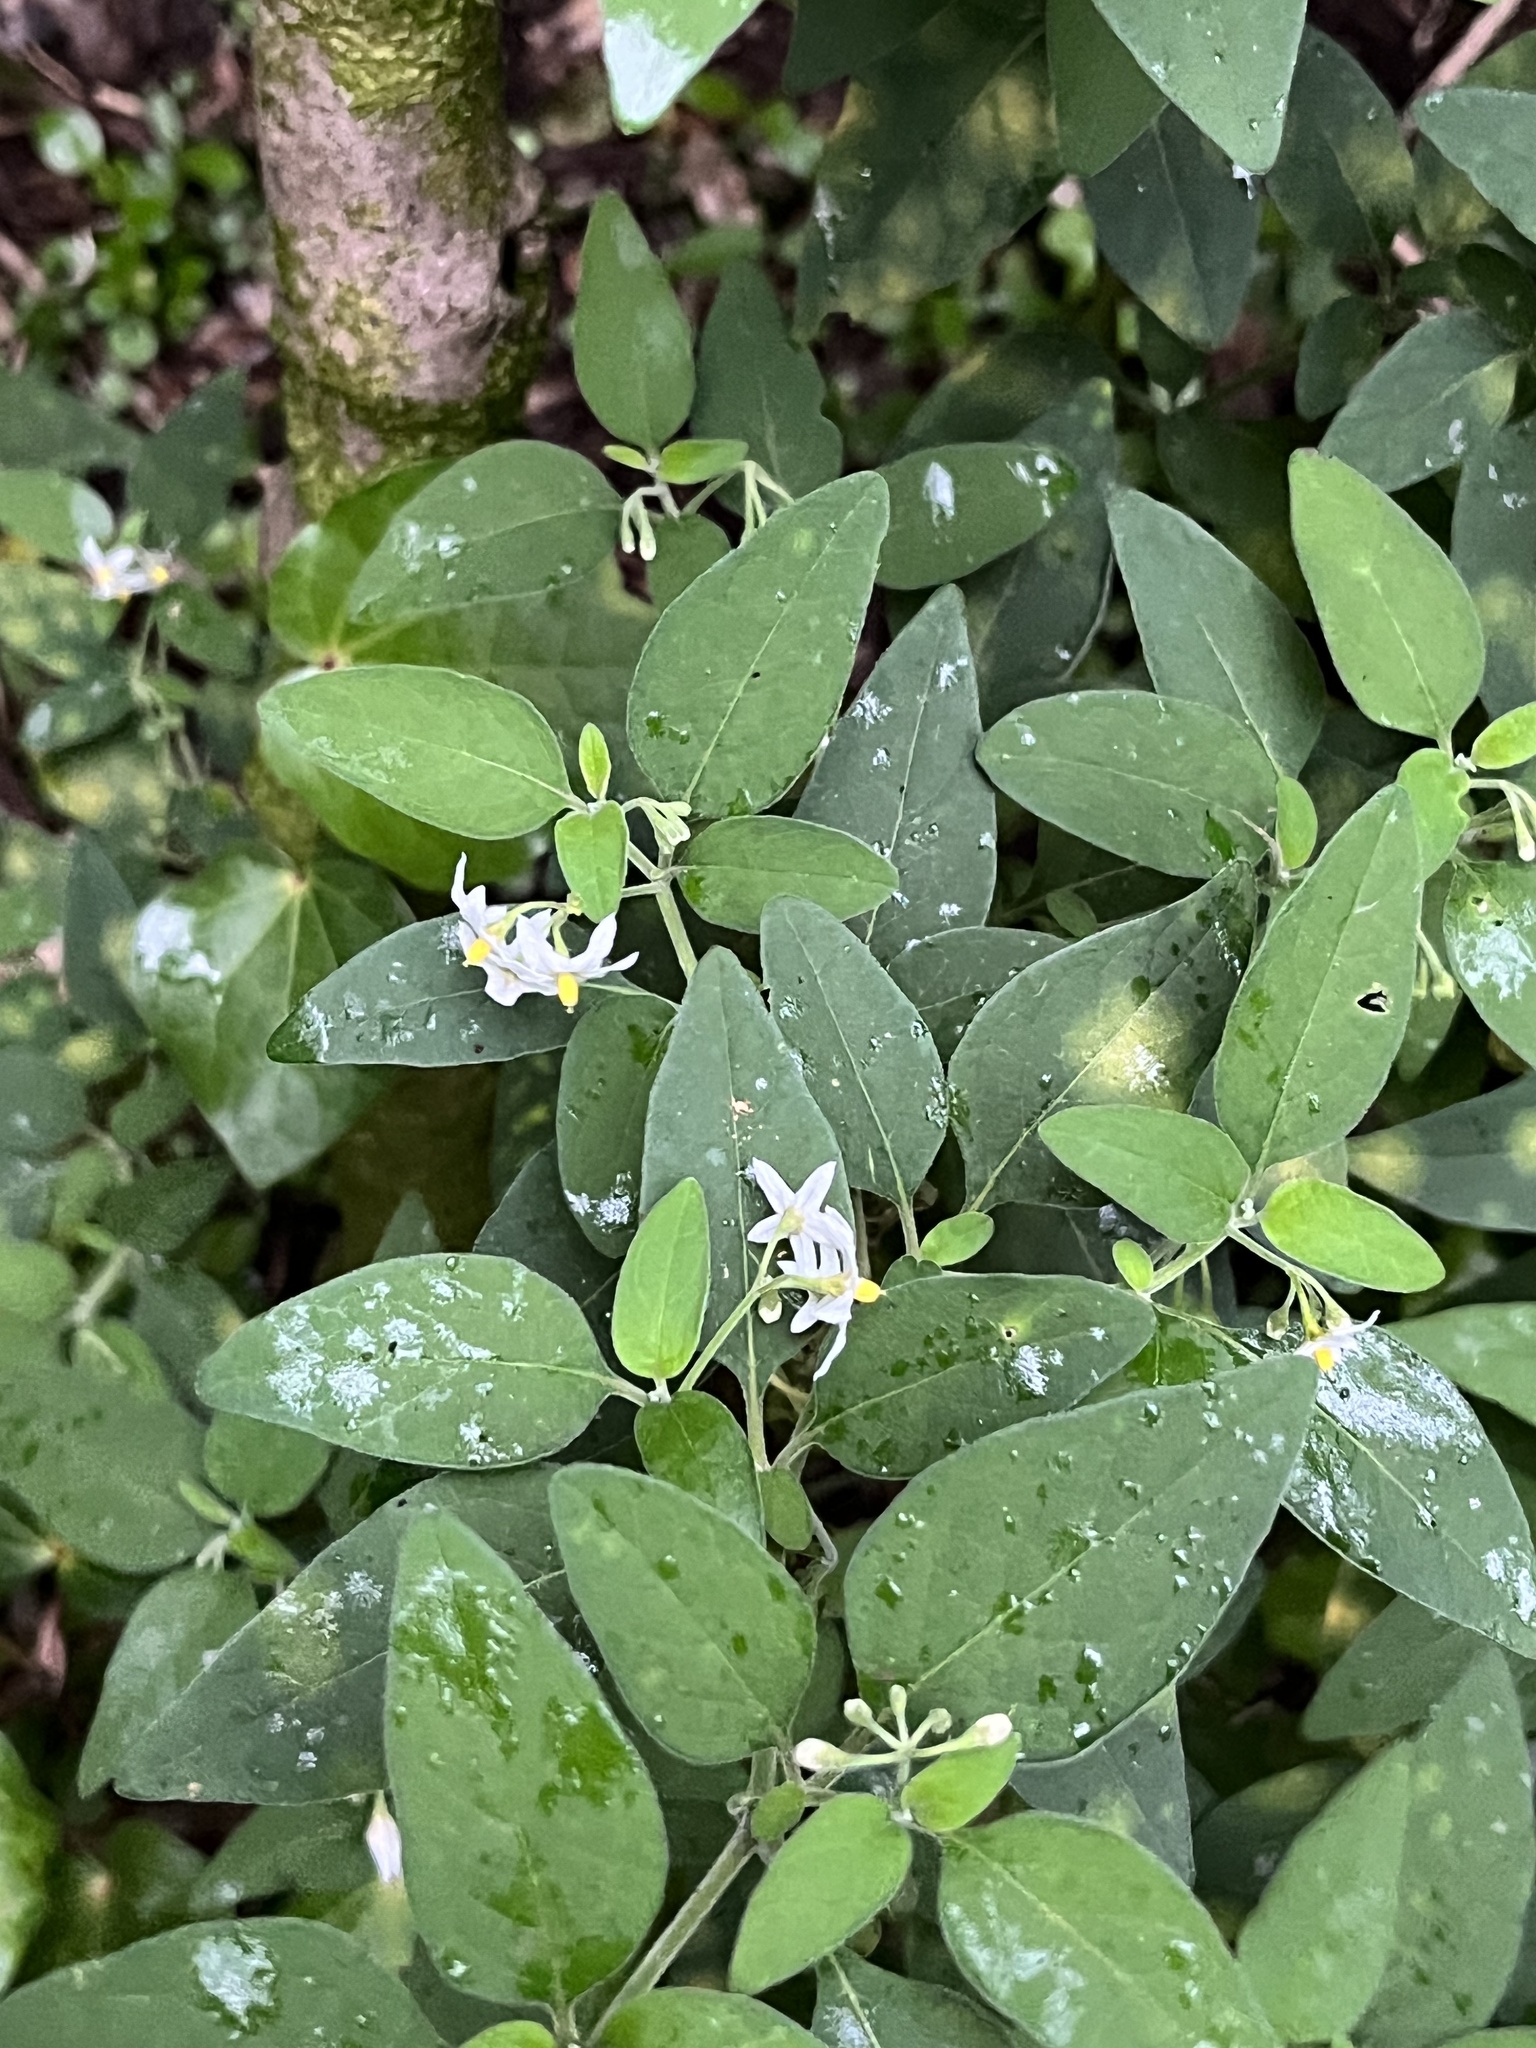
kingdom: Plantae
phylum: Tracheophyta
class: Magnoliopsida
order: Solanales
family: Solanaceae
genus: Solanum
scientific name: Solanum chenopodioides
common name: Tall nightshade
